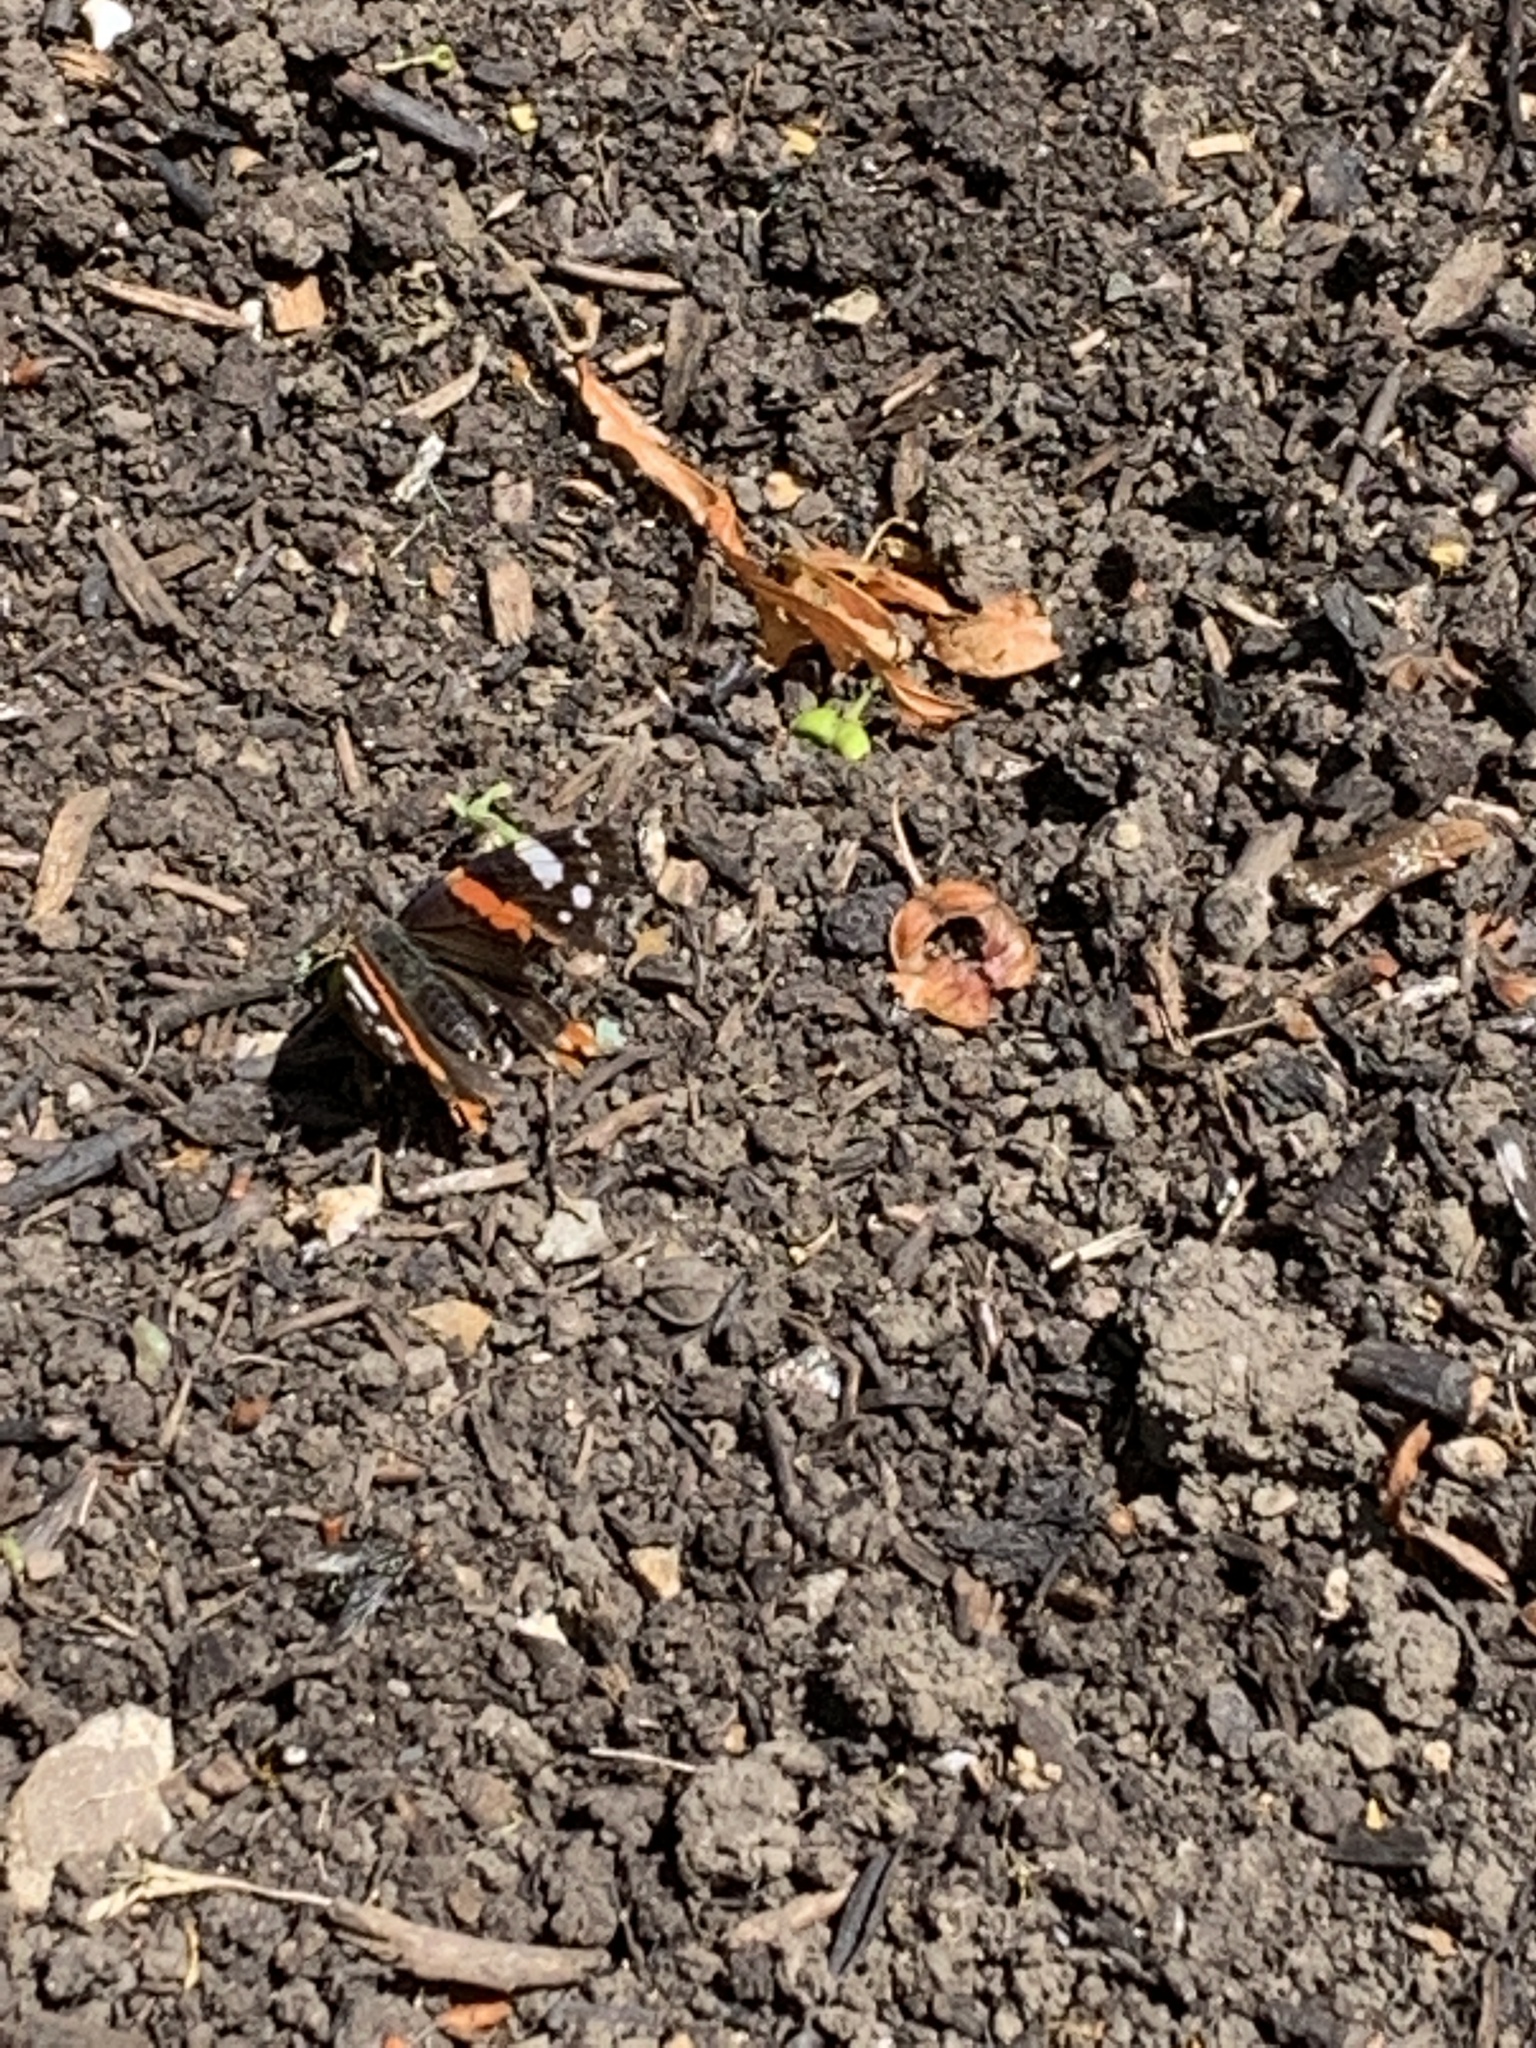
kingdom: Animalia
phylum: Arthropoda
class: Insecta
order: Lepidoptera
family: Nymphalidae
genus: Vanessa
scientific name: Vanessa atalanta
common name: Red admiral
